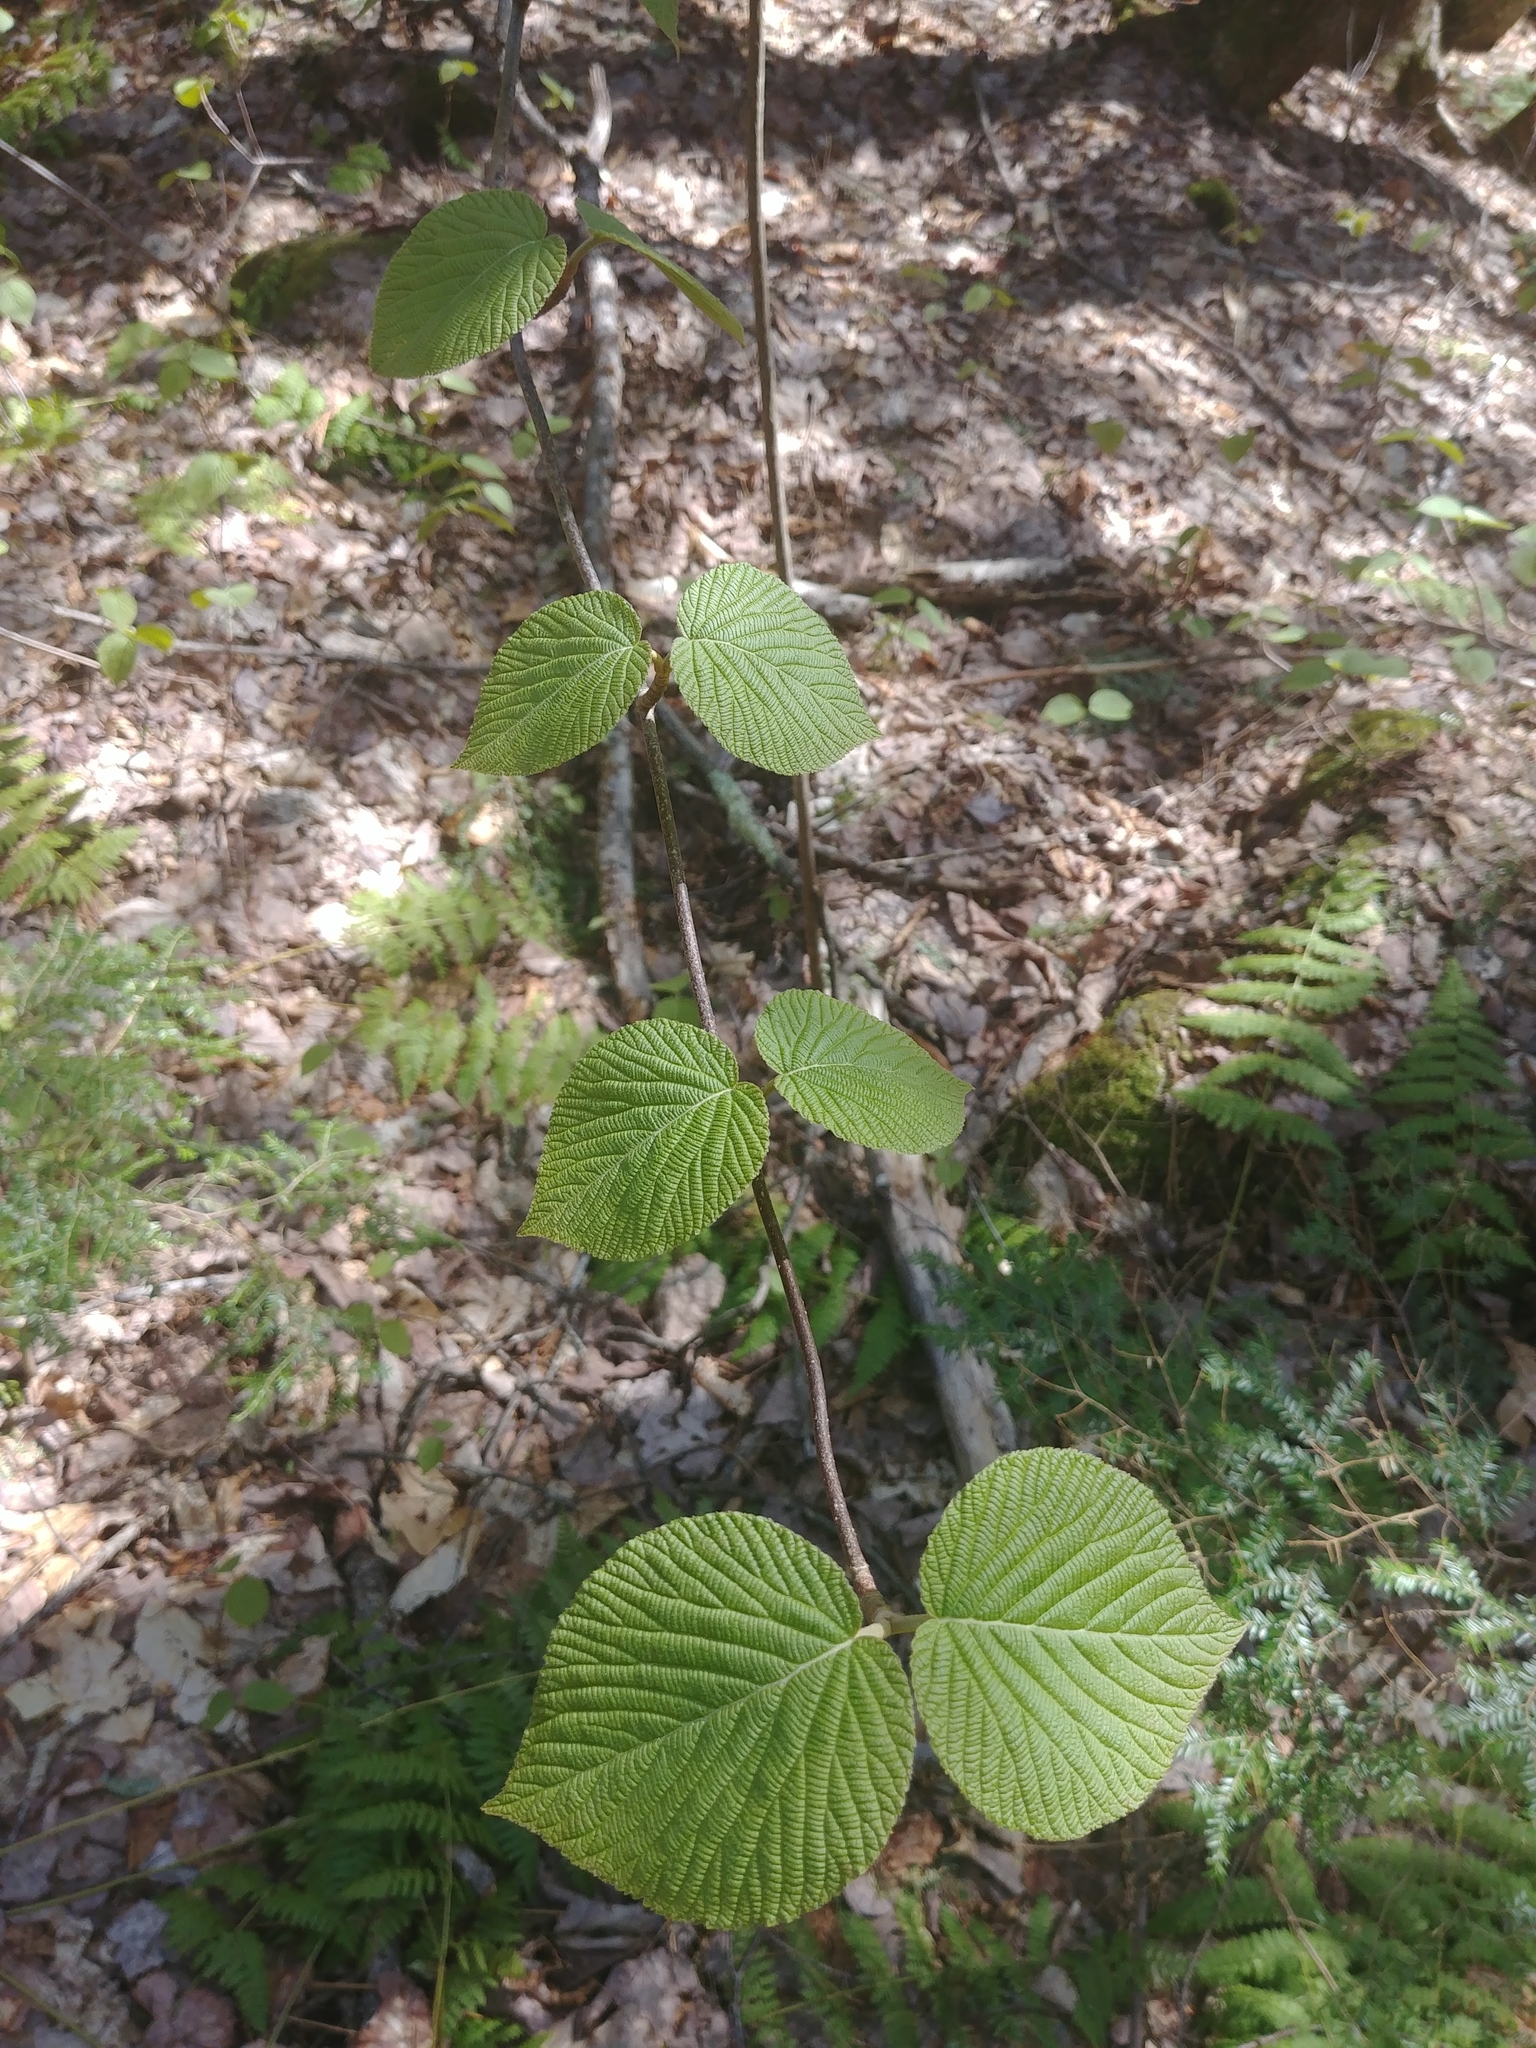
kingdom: Plantae
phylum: Tracheophyta
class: Magnoliopsida
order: Dipsacales
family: Viburnaceae
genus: Viburnum
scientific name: Viburnum lantanoides
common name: Hobblebush
